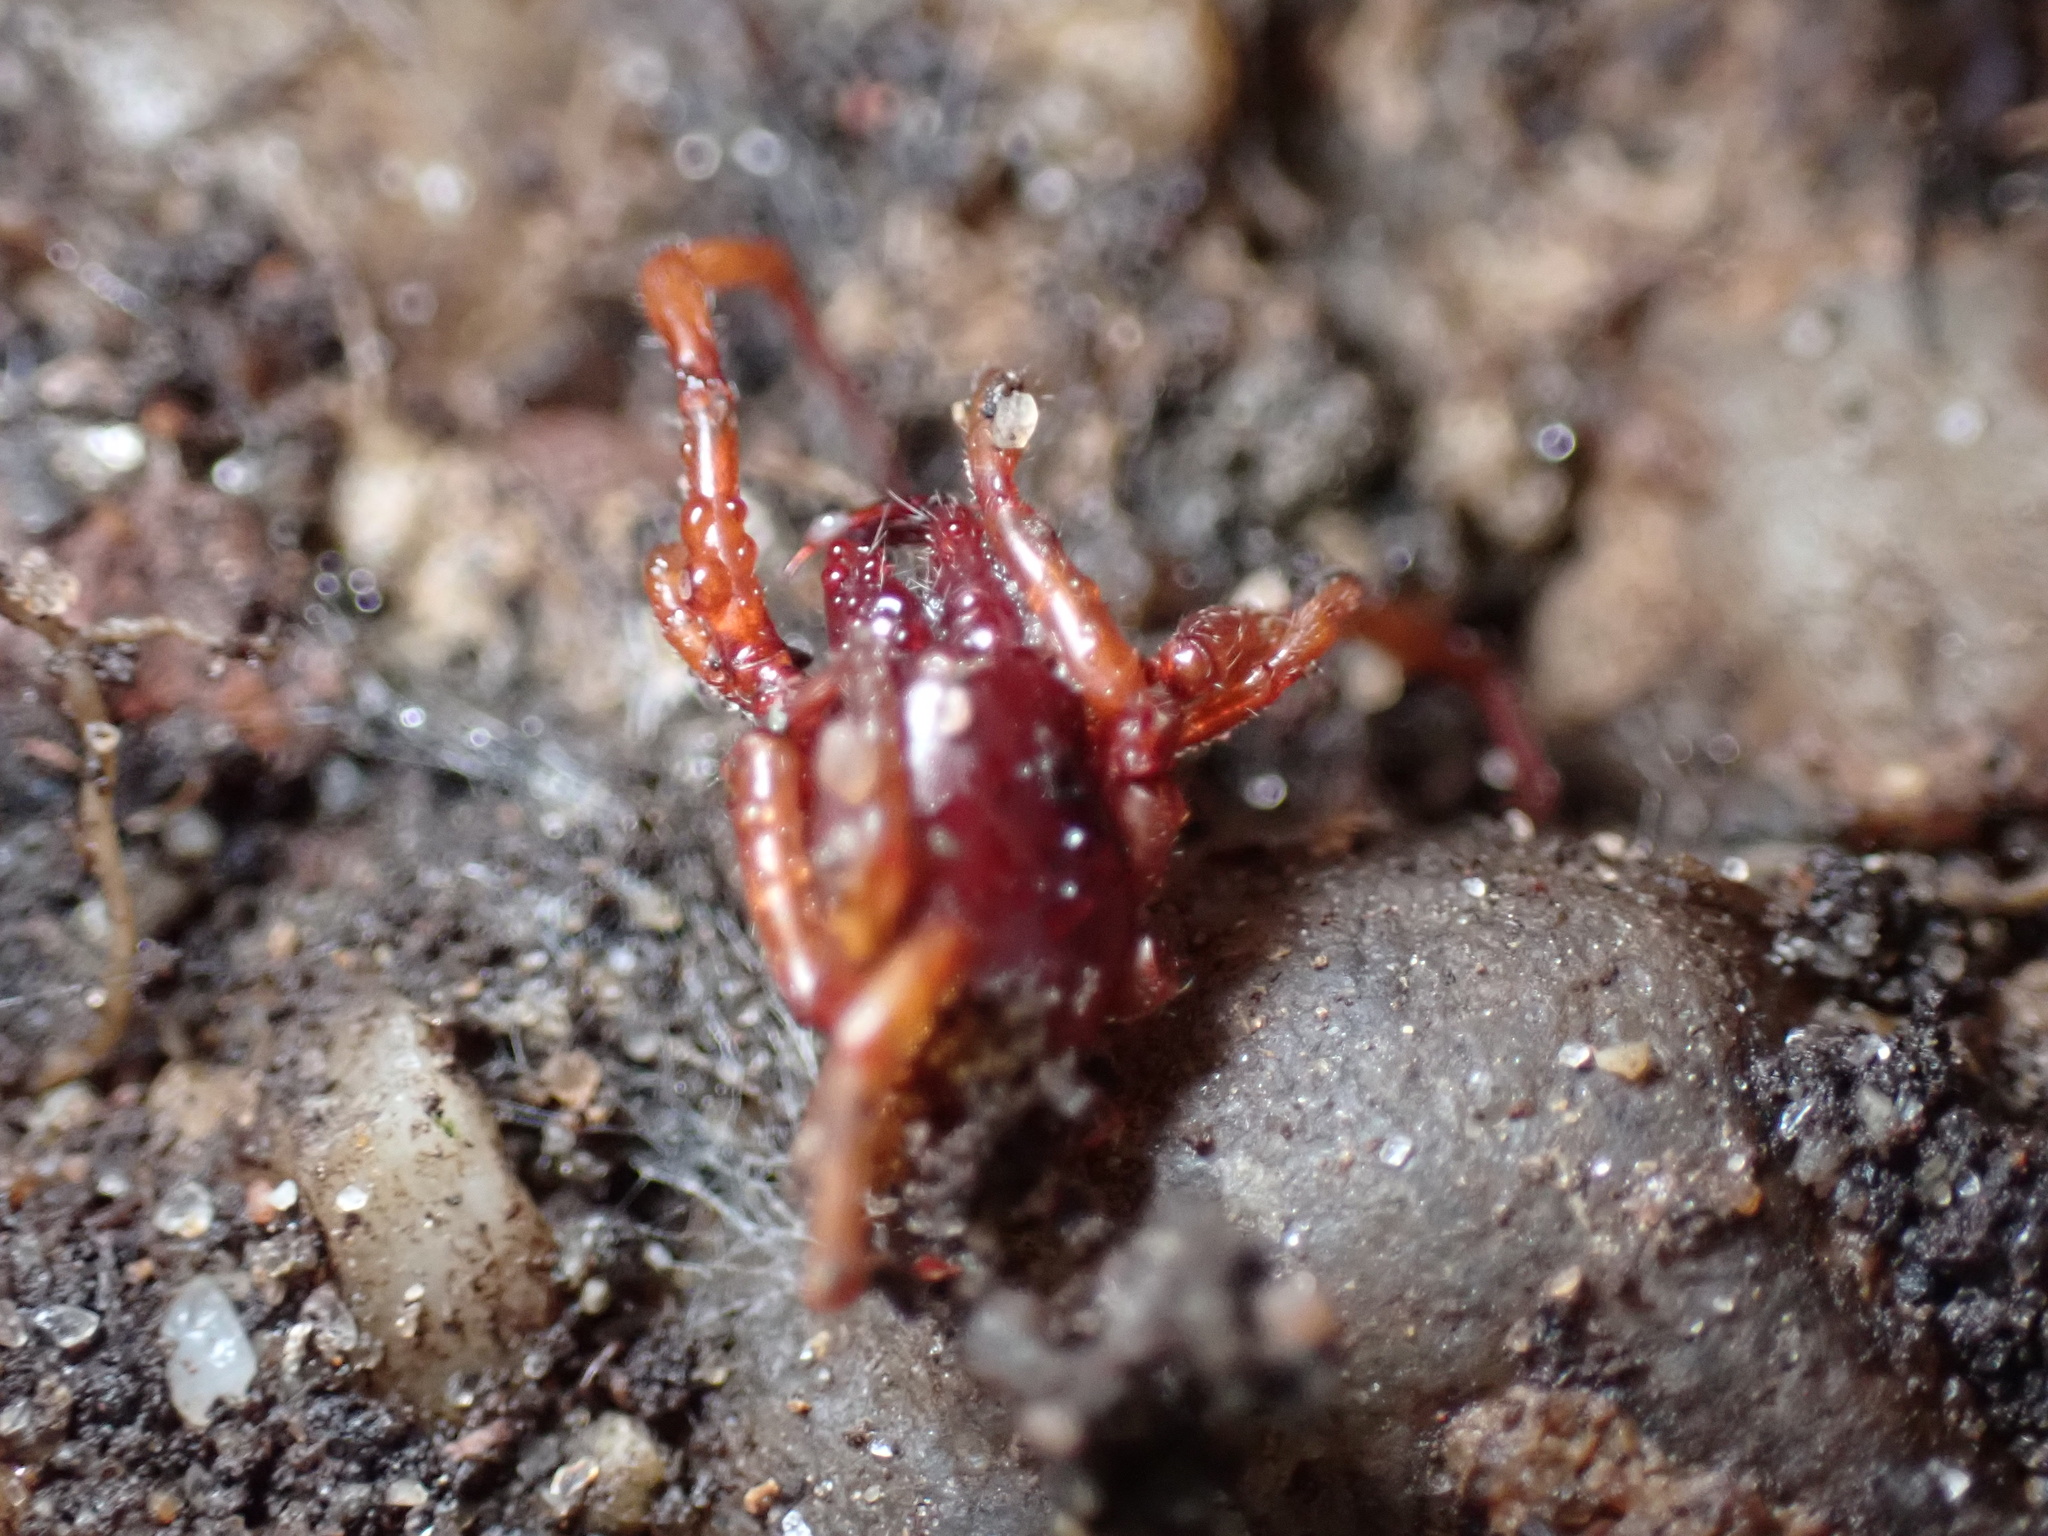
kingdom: Animalia
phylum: Arthropoda
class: Arachnida
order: Araneae
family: Dysderidae
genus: Dysdera
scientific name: Dysdera crocata
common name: Woodlouse spider
